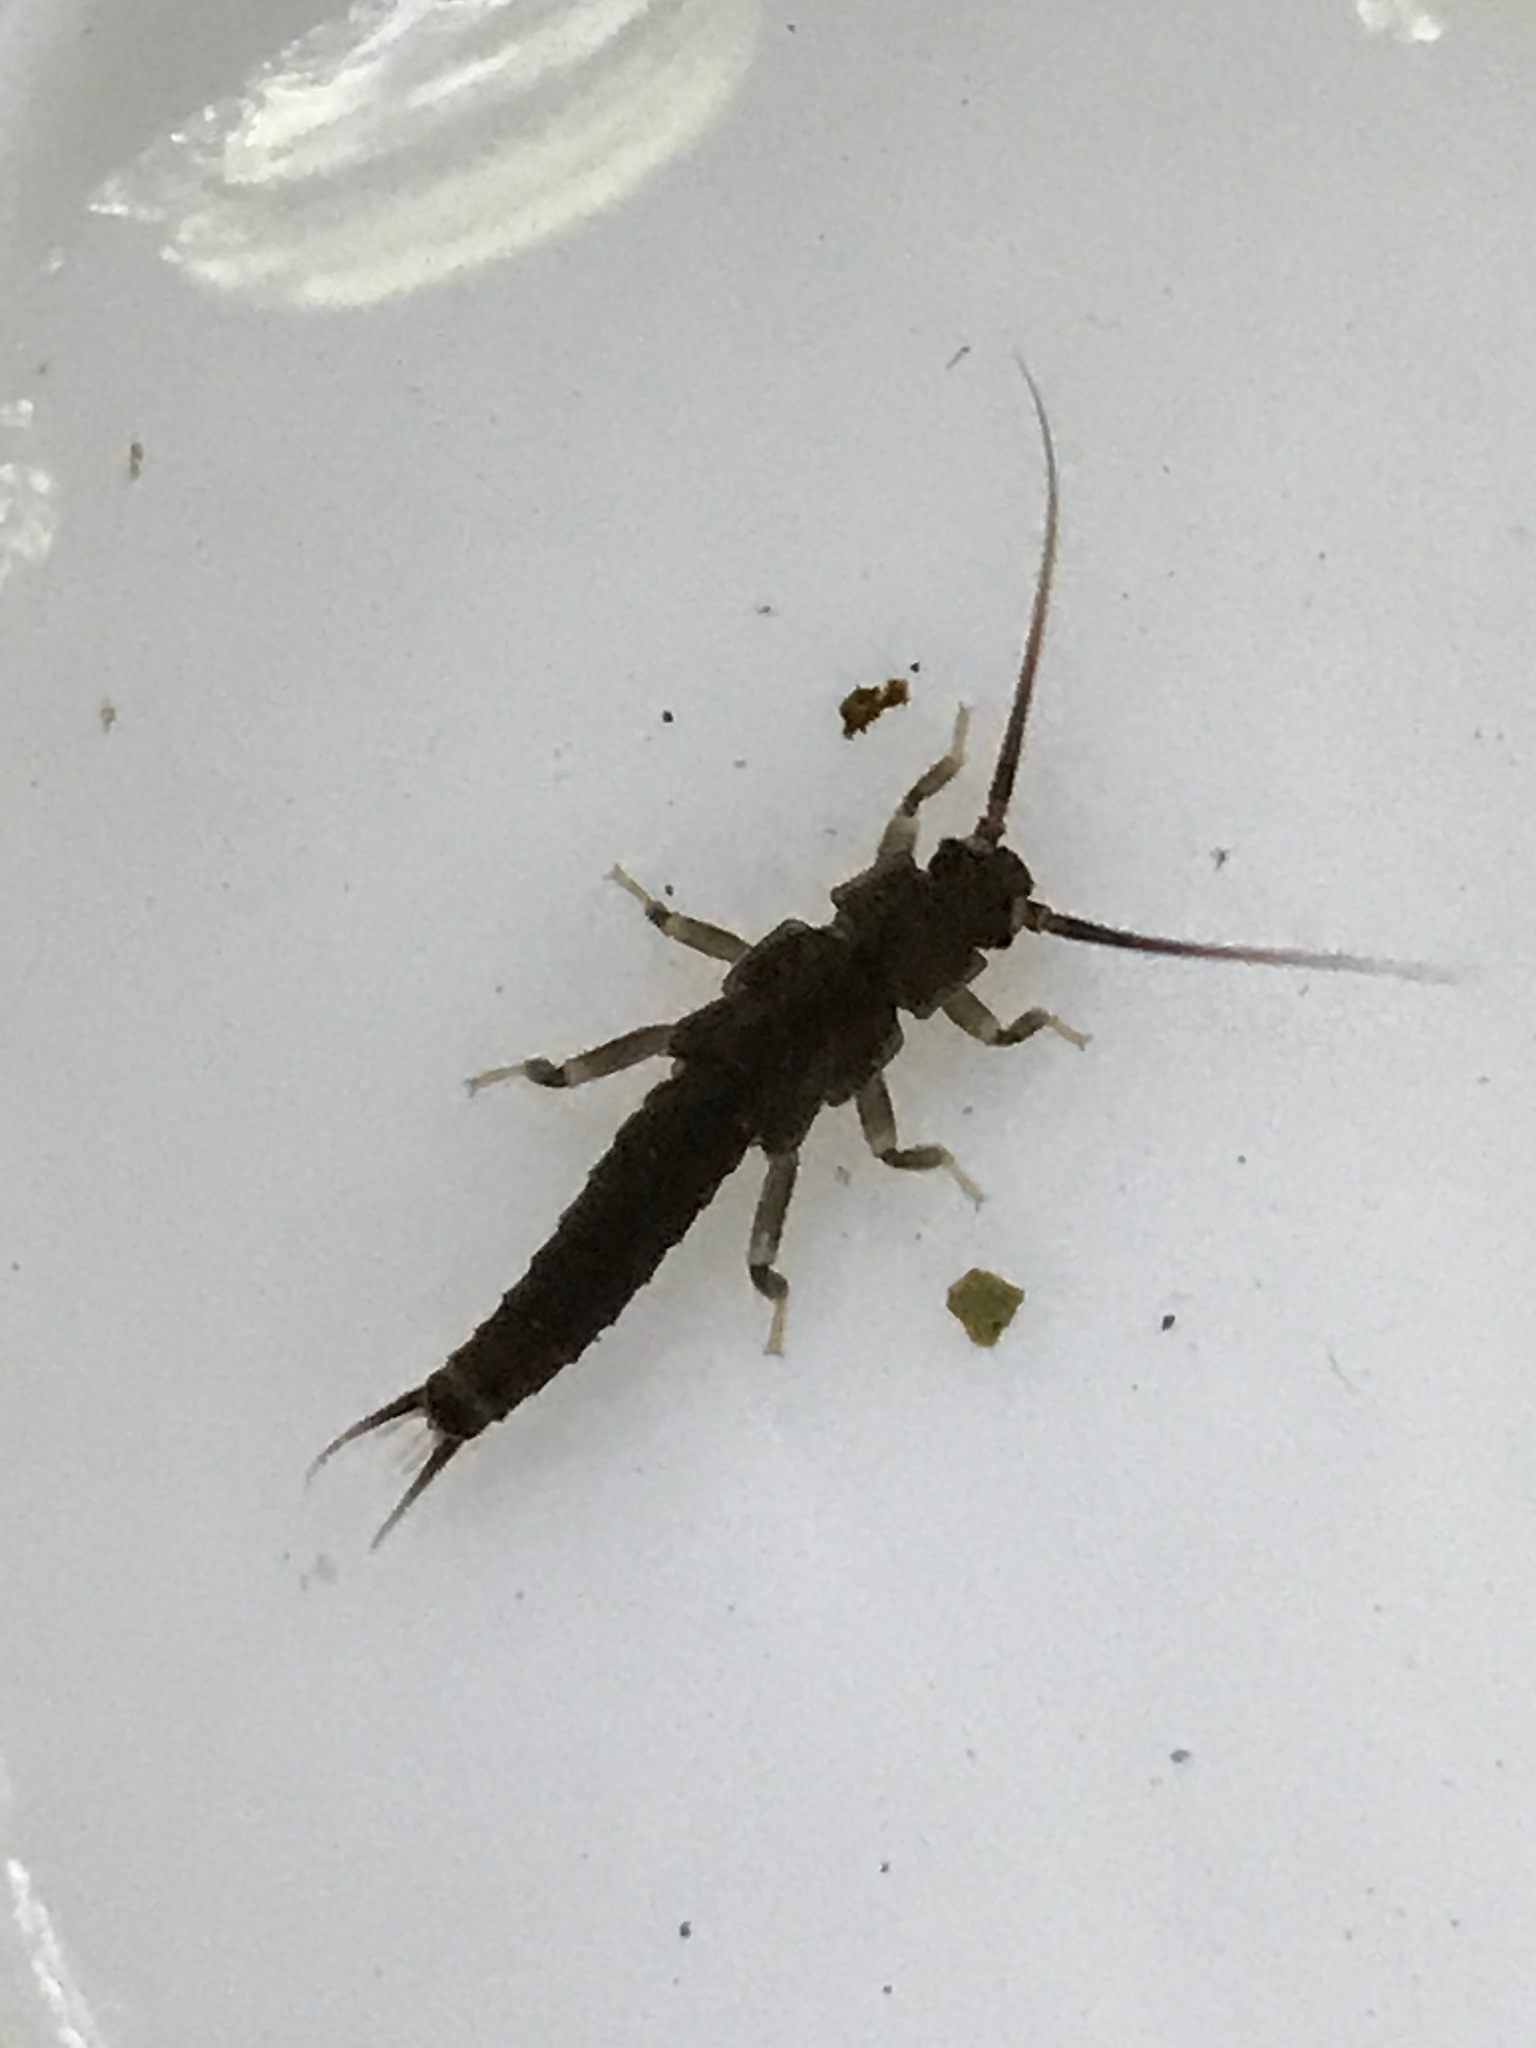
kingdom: Animalia
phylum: Arthropoda
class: Insecta
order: Plecoptera
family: Austroperlidae
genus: Austroperla
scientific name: Austroperla cyrene
